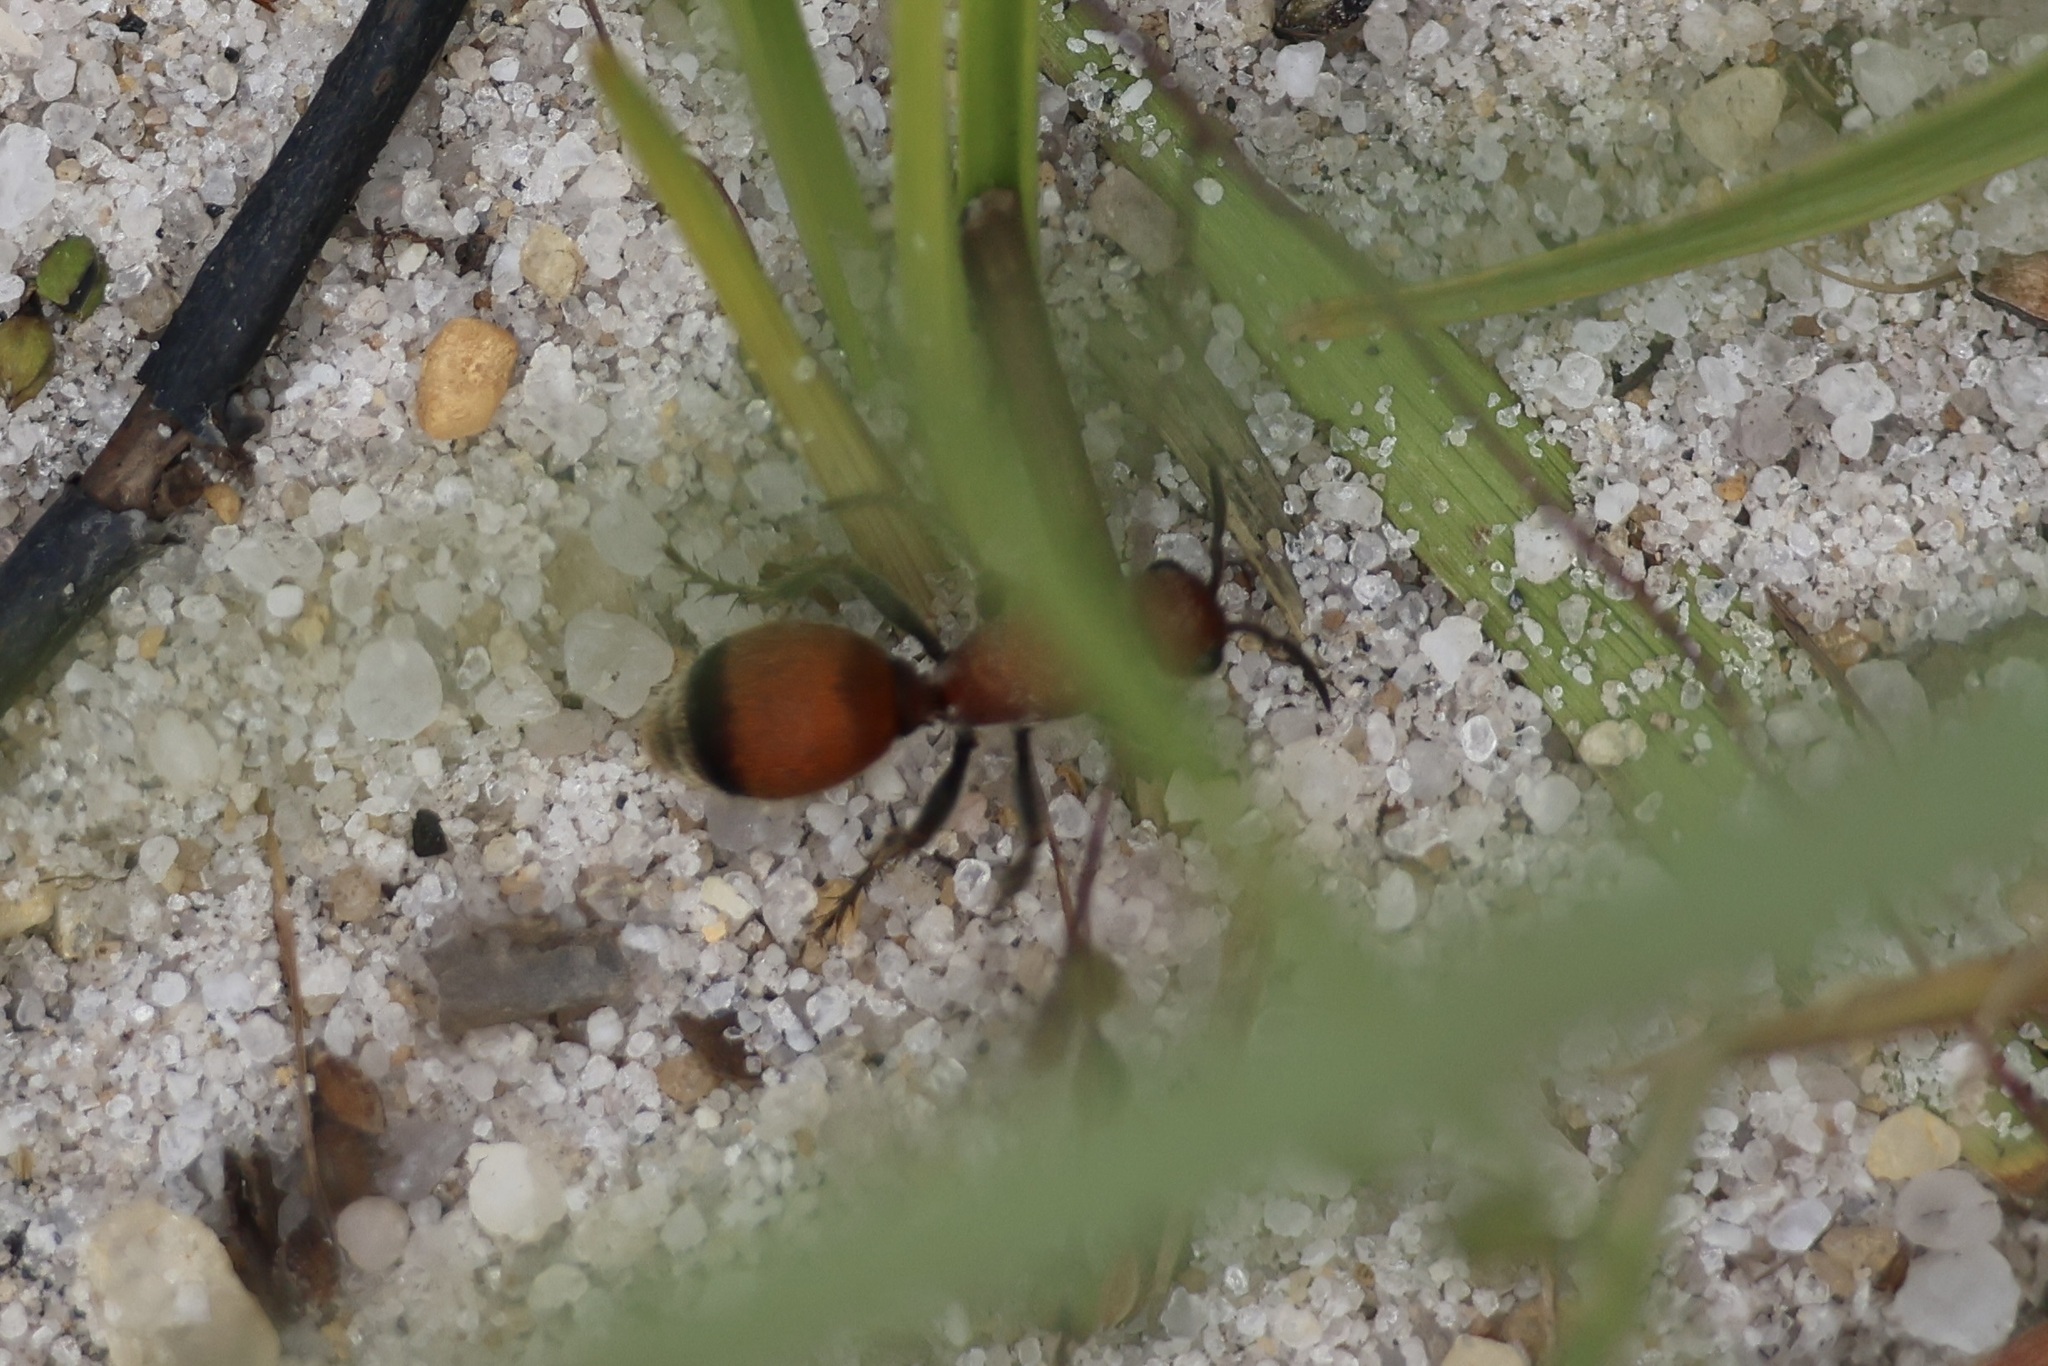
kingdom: Animalia
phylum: Arthropoda
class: Insecta
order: Hymenoptera
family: Mutillidae
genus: Dasymutilla
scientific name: Dasymutilla
